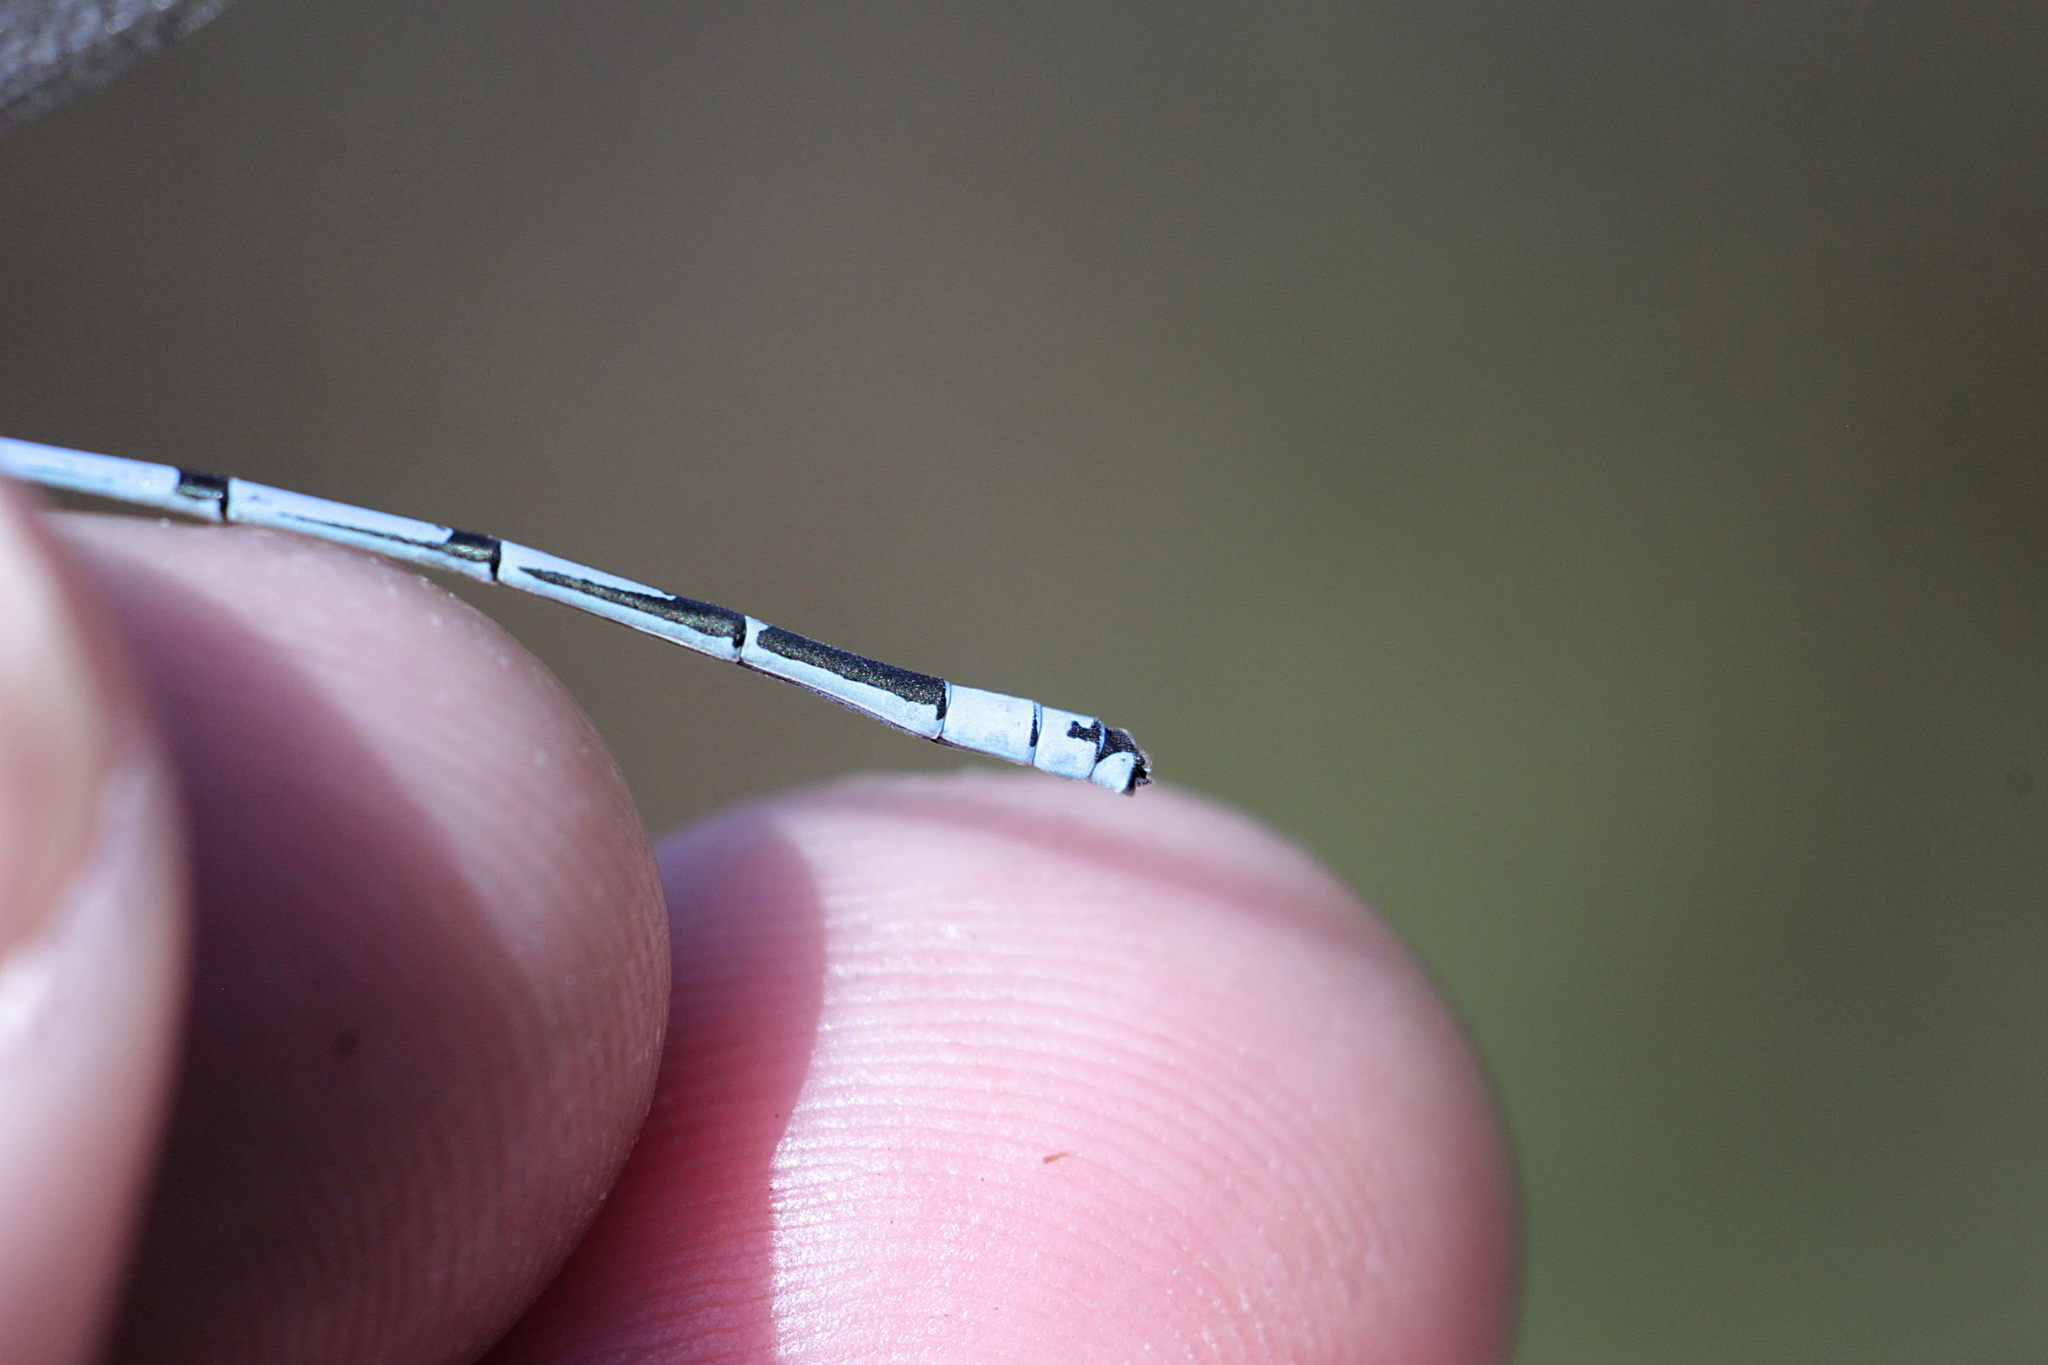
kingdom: Animalia
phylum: Arthropoda
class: Insecta
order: Odonata
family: Coenagrionidae
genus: Coenagrion
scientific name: Coenagrion puella
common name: Azure damselfly
